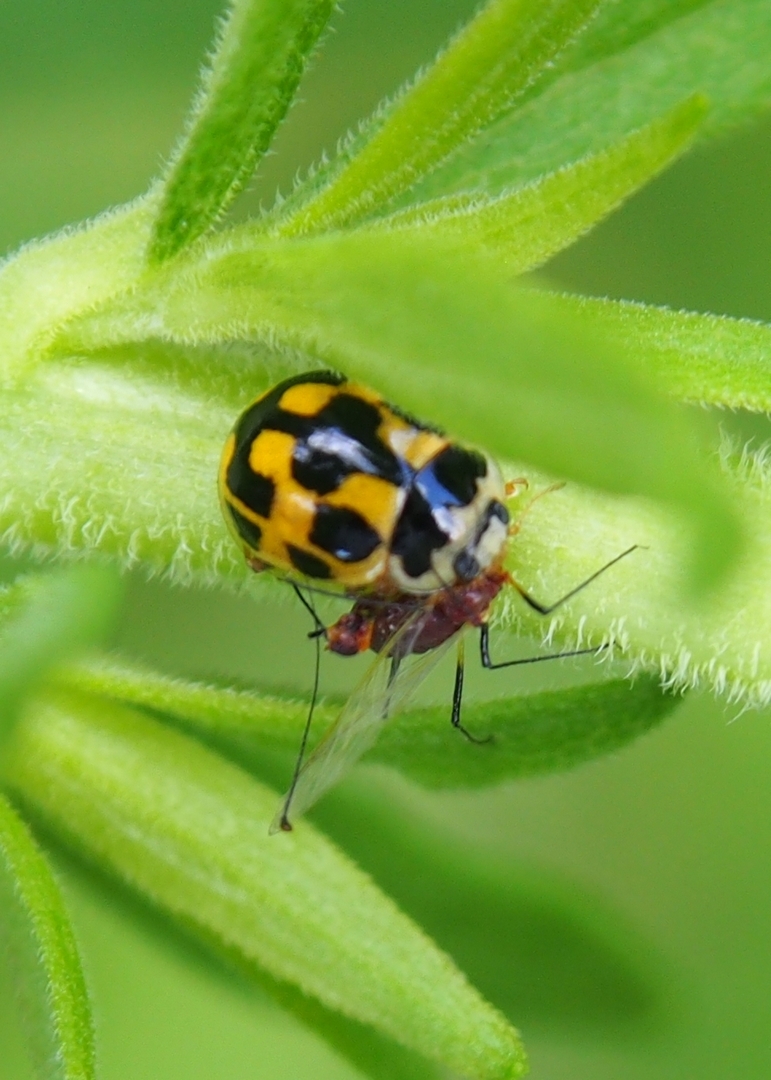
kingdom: Animalia
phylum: Arthropoda
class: Insecta
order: Coleoptera
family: Coccinellidae
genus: Propylaea
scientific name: Propylaea quatuordecimpunctata
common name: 14-spotted ladybird beetle
